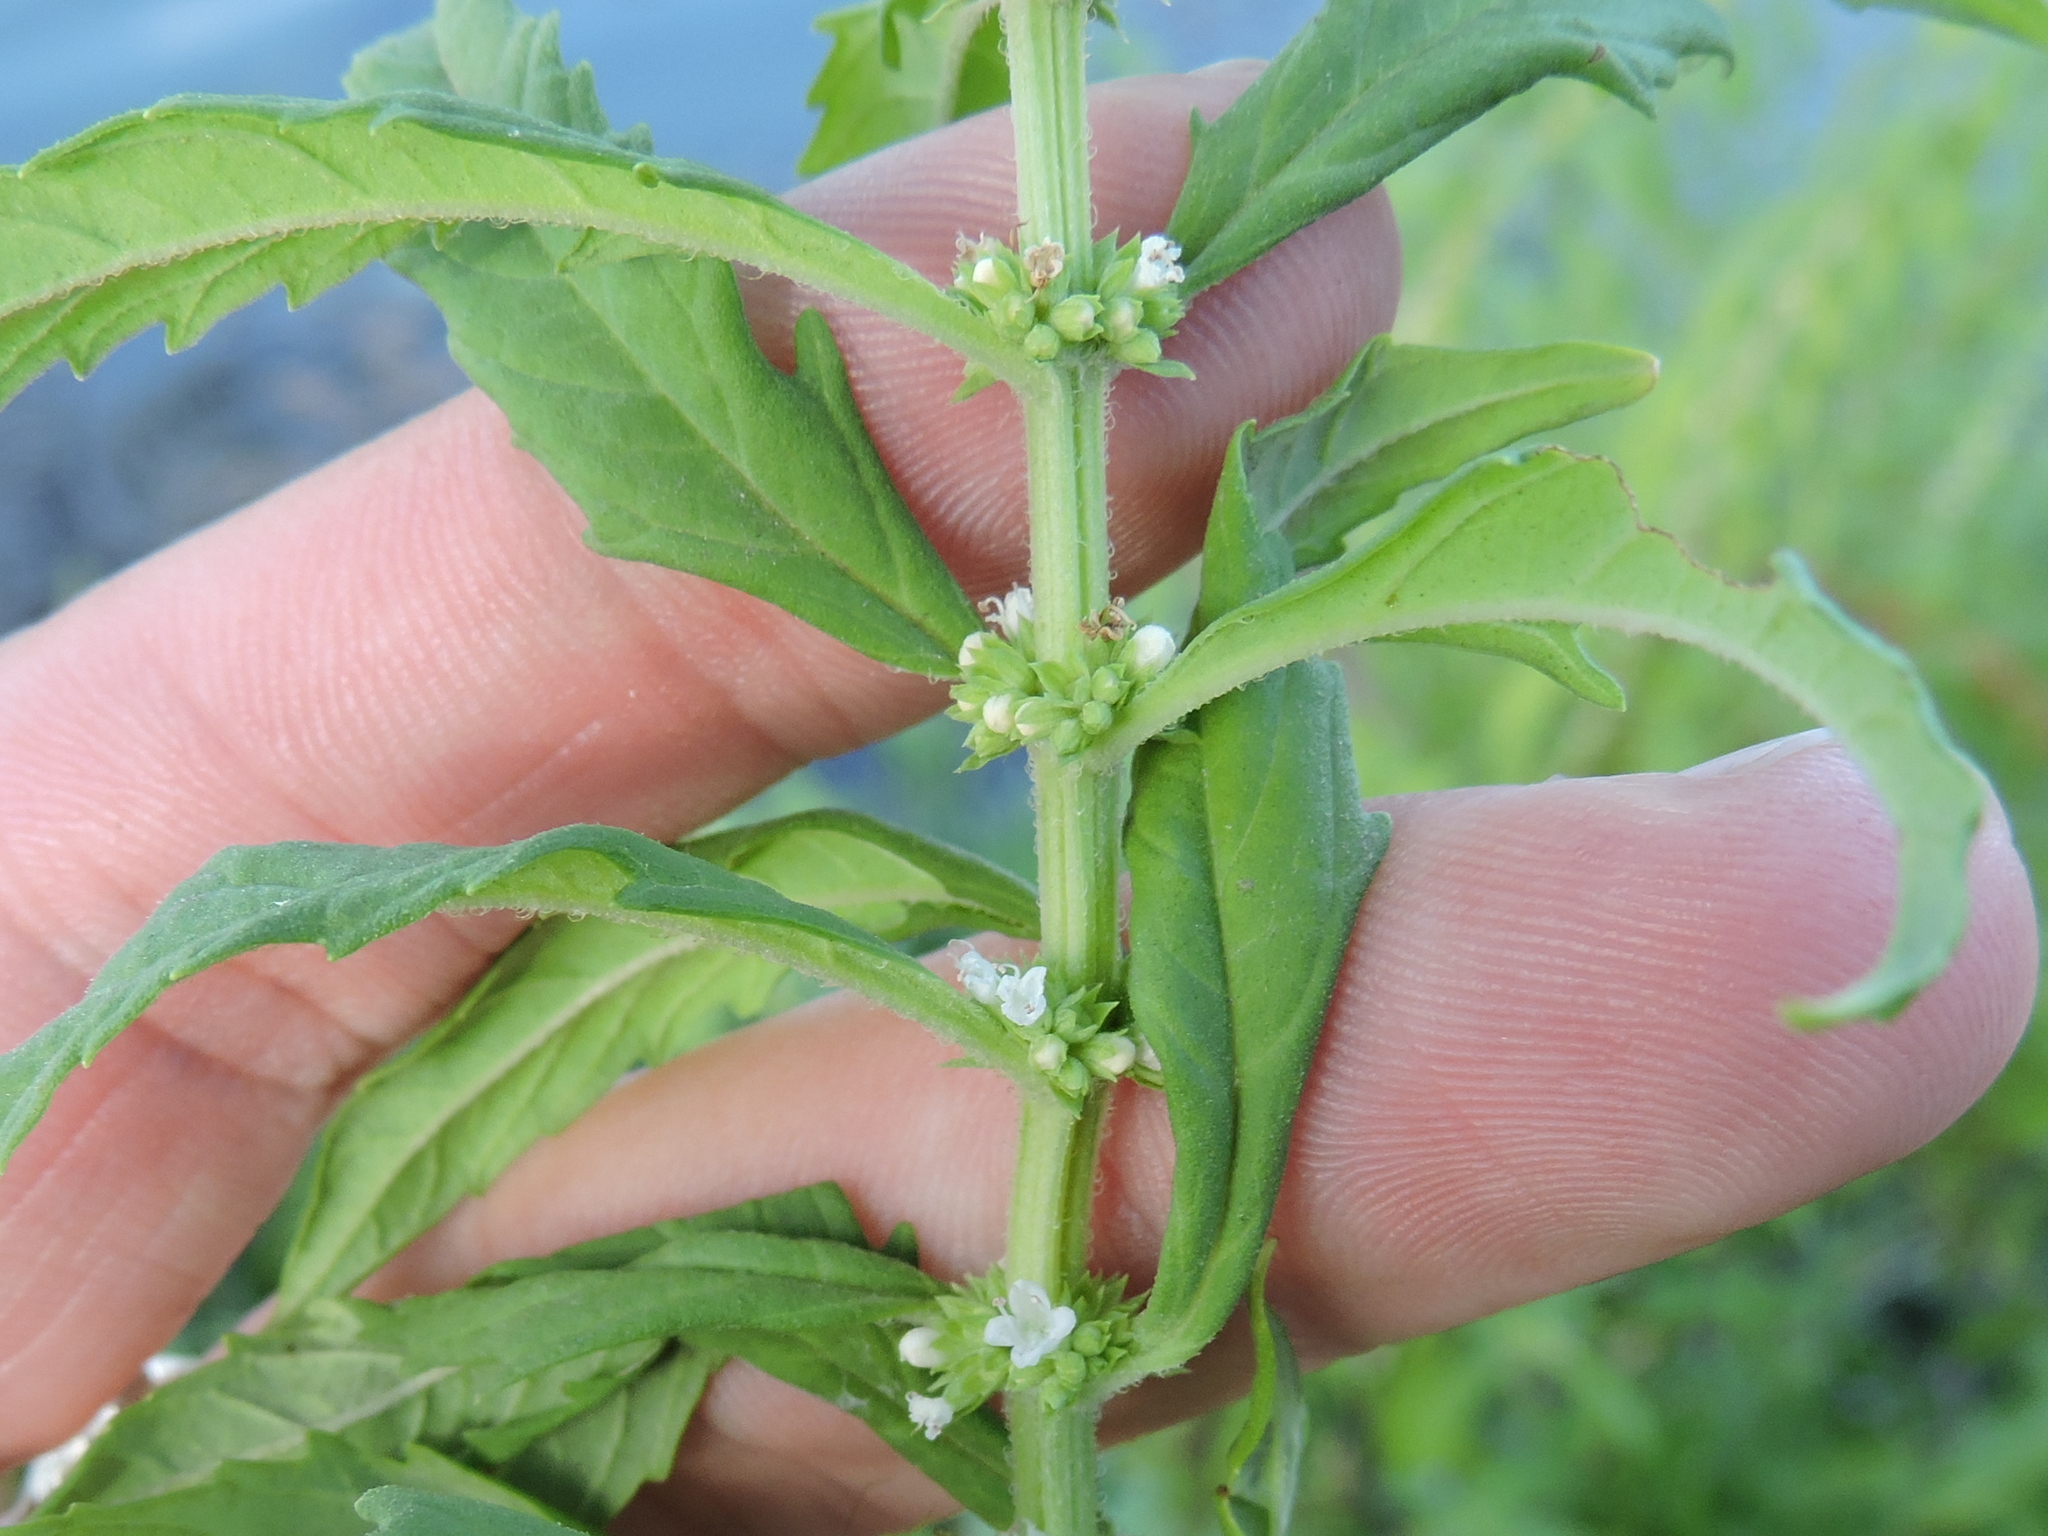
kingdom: Plantae
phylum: Tracheophyta
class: Magnoliopsida
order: Lamiales
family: Lamiaceae
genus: Lycopus
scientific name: Lycopus americanus
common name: American bugleweed
